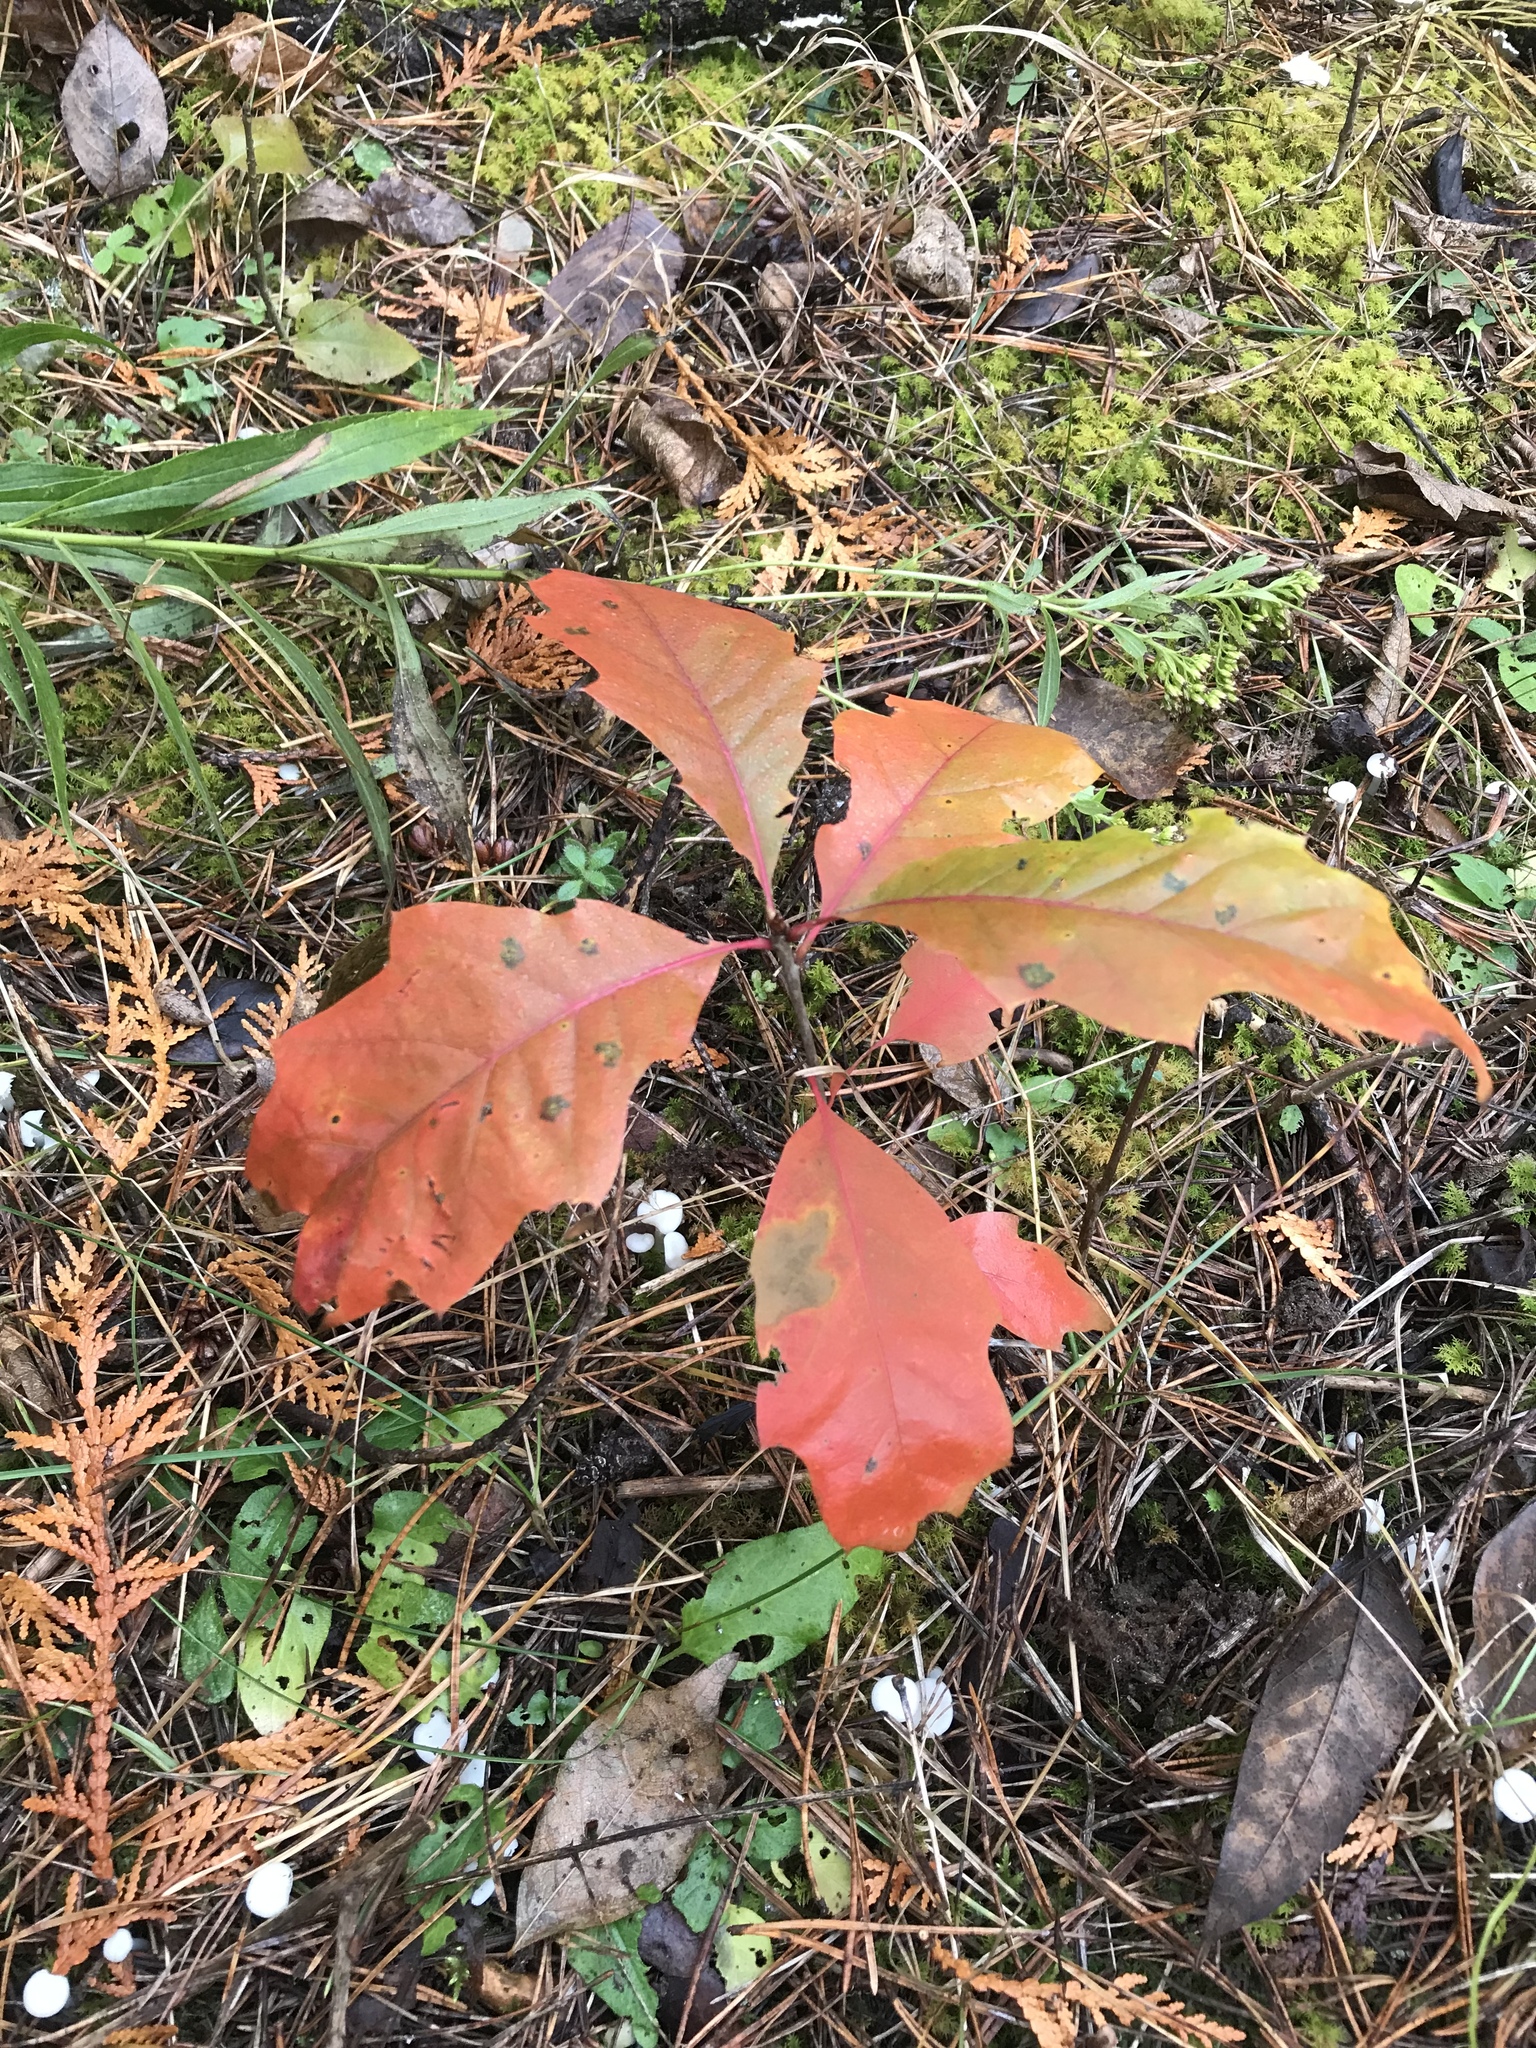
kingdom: Plantae
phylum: Tracheophyta
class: Magnoliopsida
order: Fagales
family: Fagaceae
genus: Quercus
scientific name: Quercus rubra
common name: Red oak
